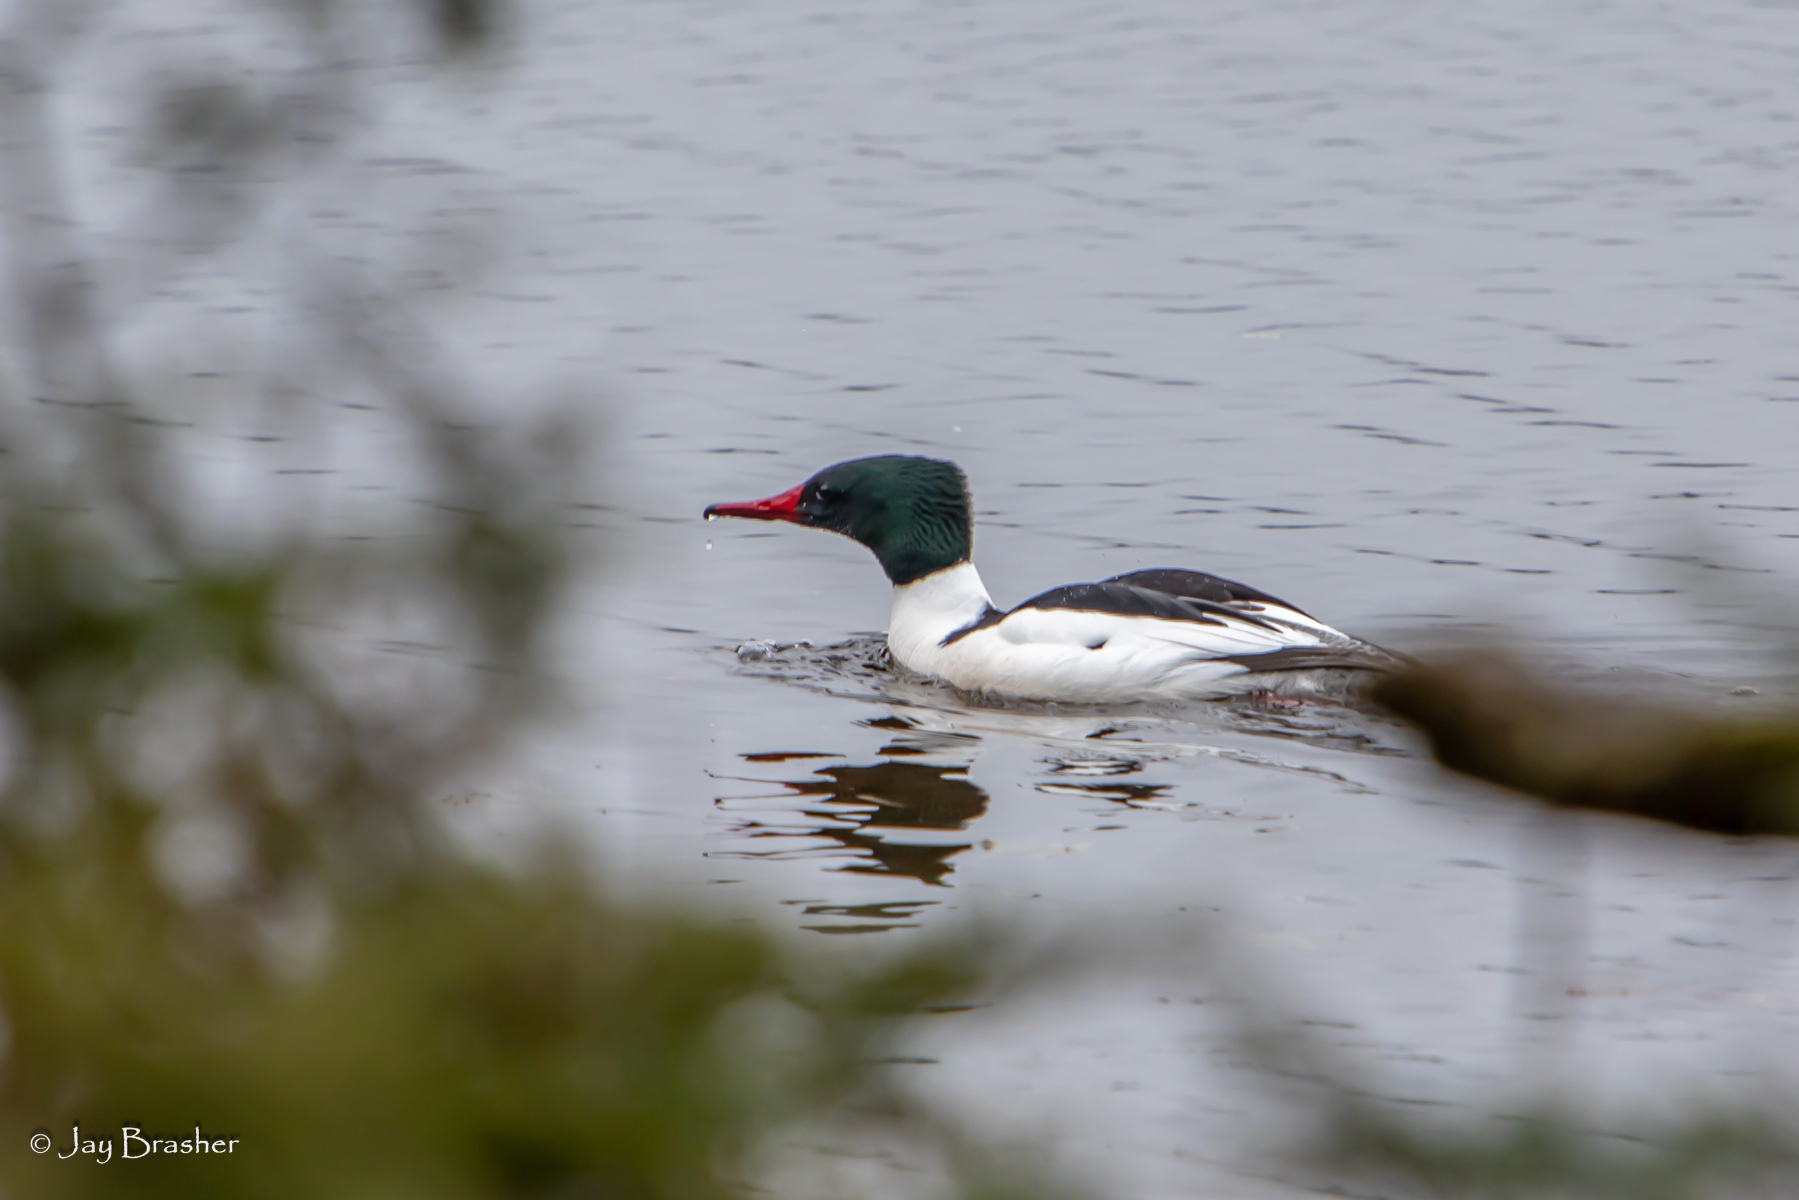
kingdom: Animalia
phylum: Chordata
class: Aves
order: Anseriformes
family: Anatidae
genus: Mergus
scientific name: Mergus merganser
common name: Common merganser
